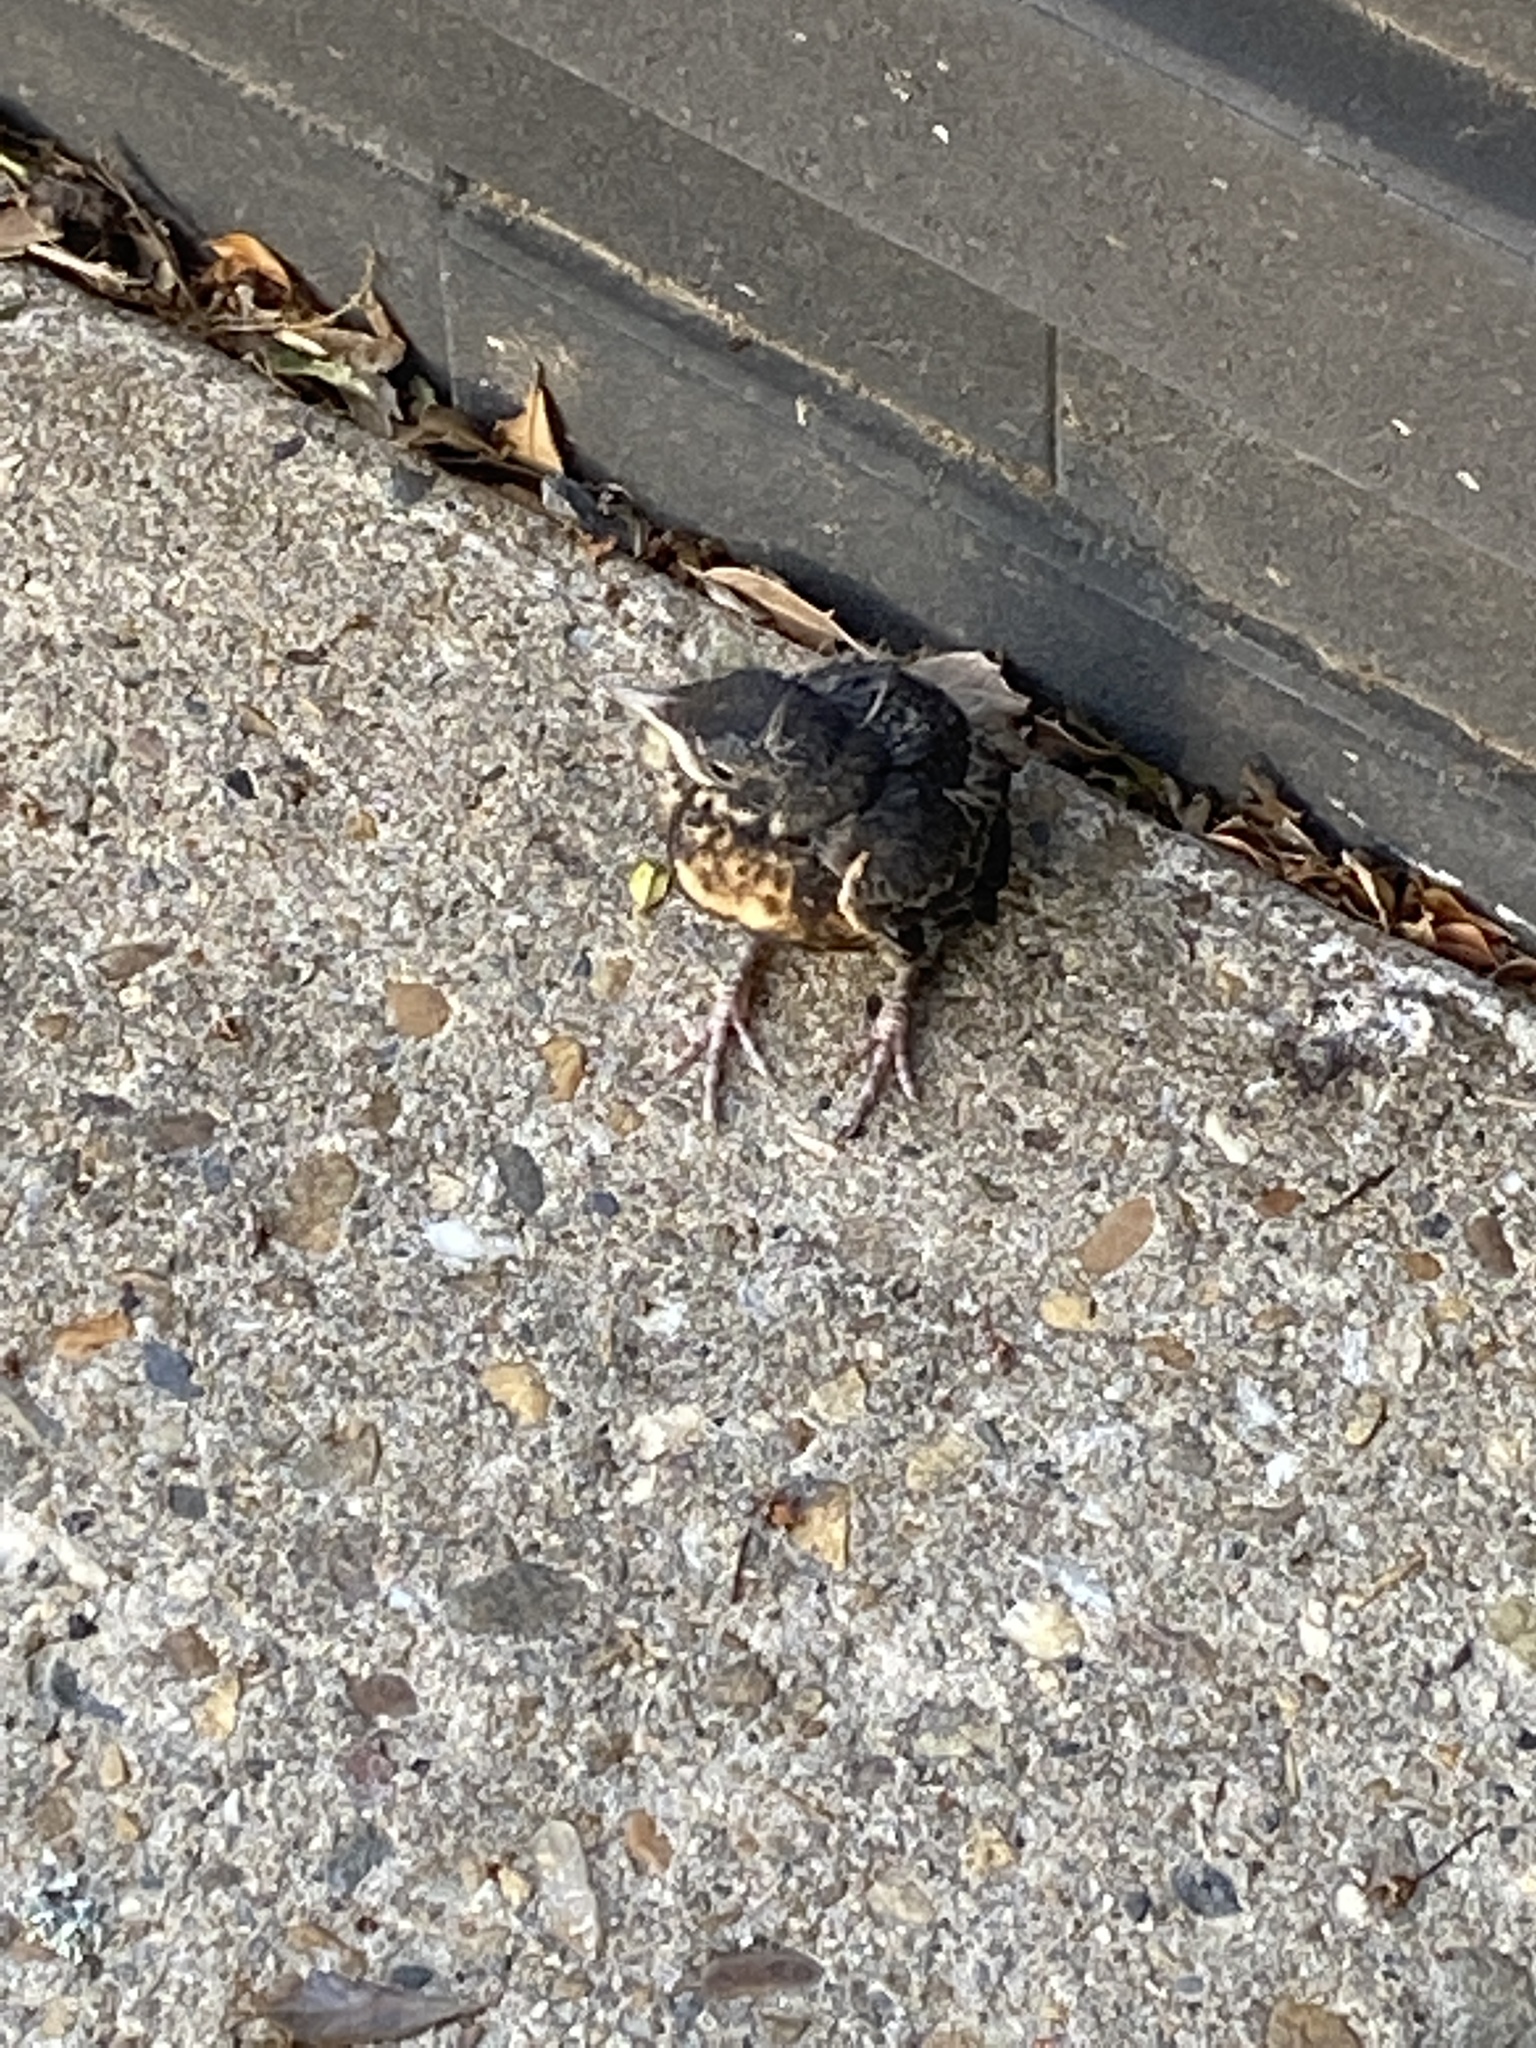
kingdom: Animalia
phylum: Chordata
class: Aves
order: Passeriformes
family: Turdidae
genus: Turdus
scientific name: Turdus migratorius
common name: American robin
